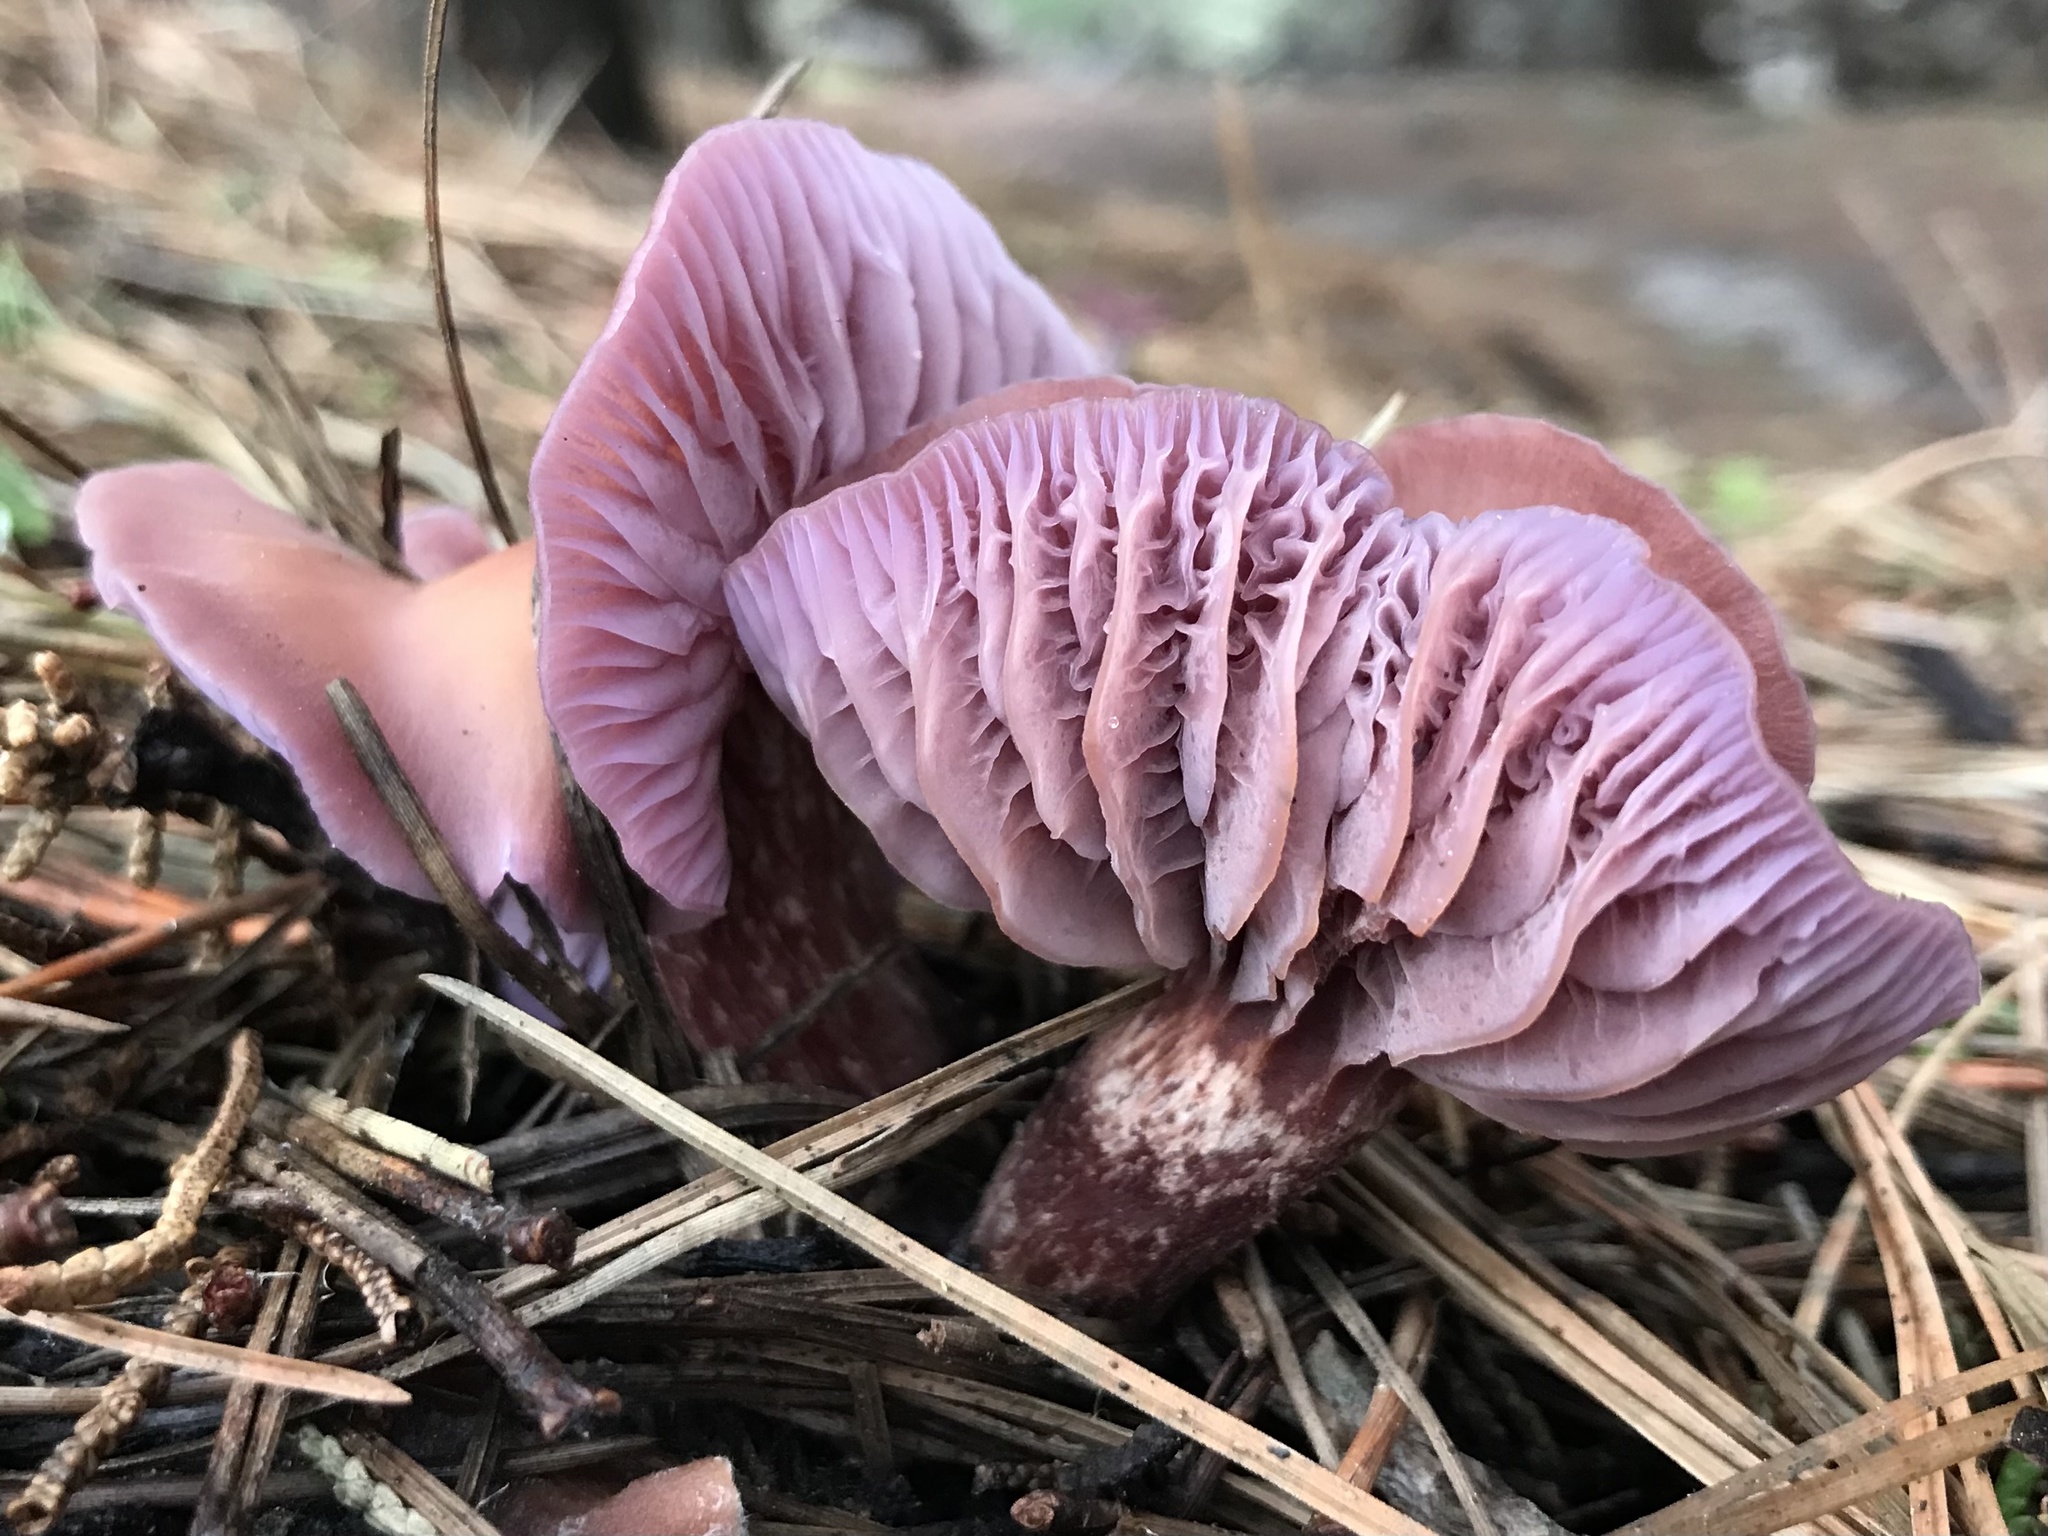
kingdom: Fungi
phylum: Basidiomycota
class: Agaricomycetes
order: Agaricales
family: Hydnangiaceae
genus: Laccaria
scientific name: Laccaria amethysteo-occidentalis
